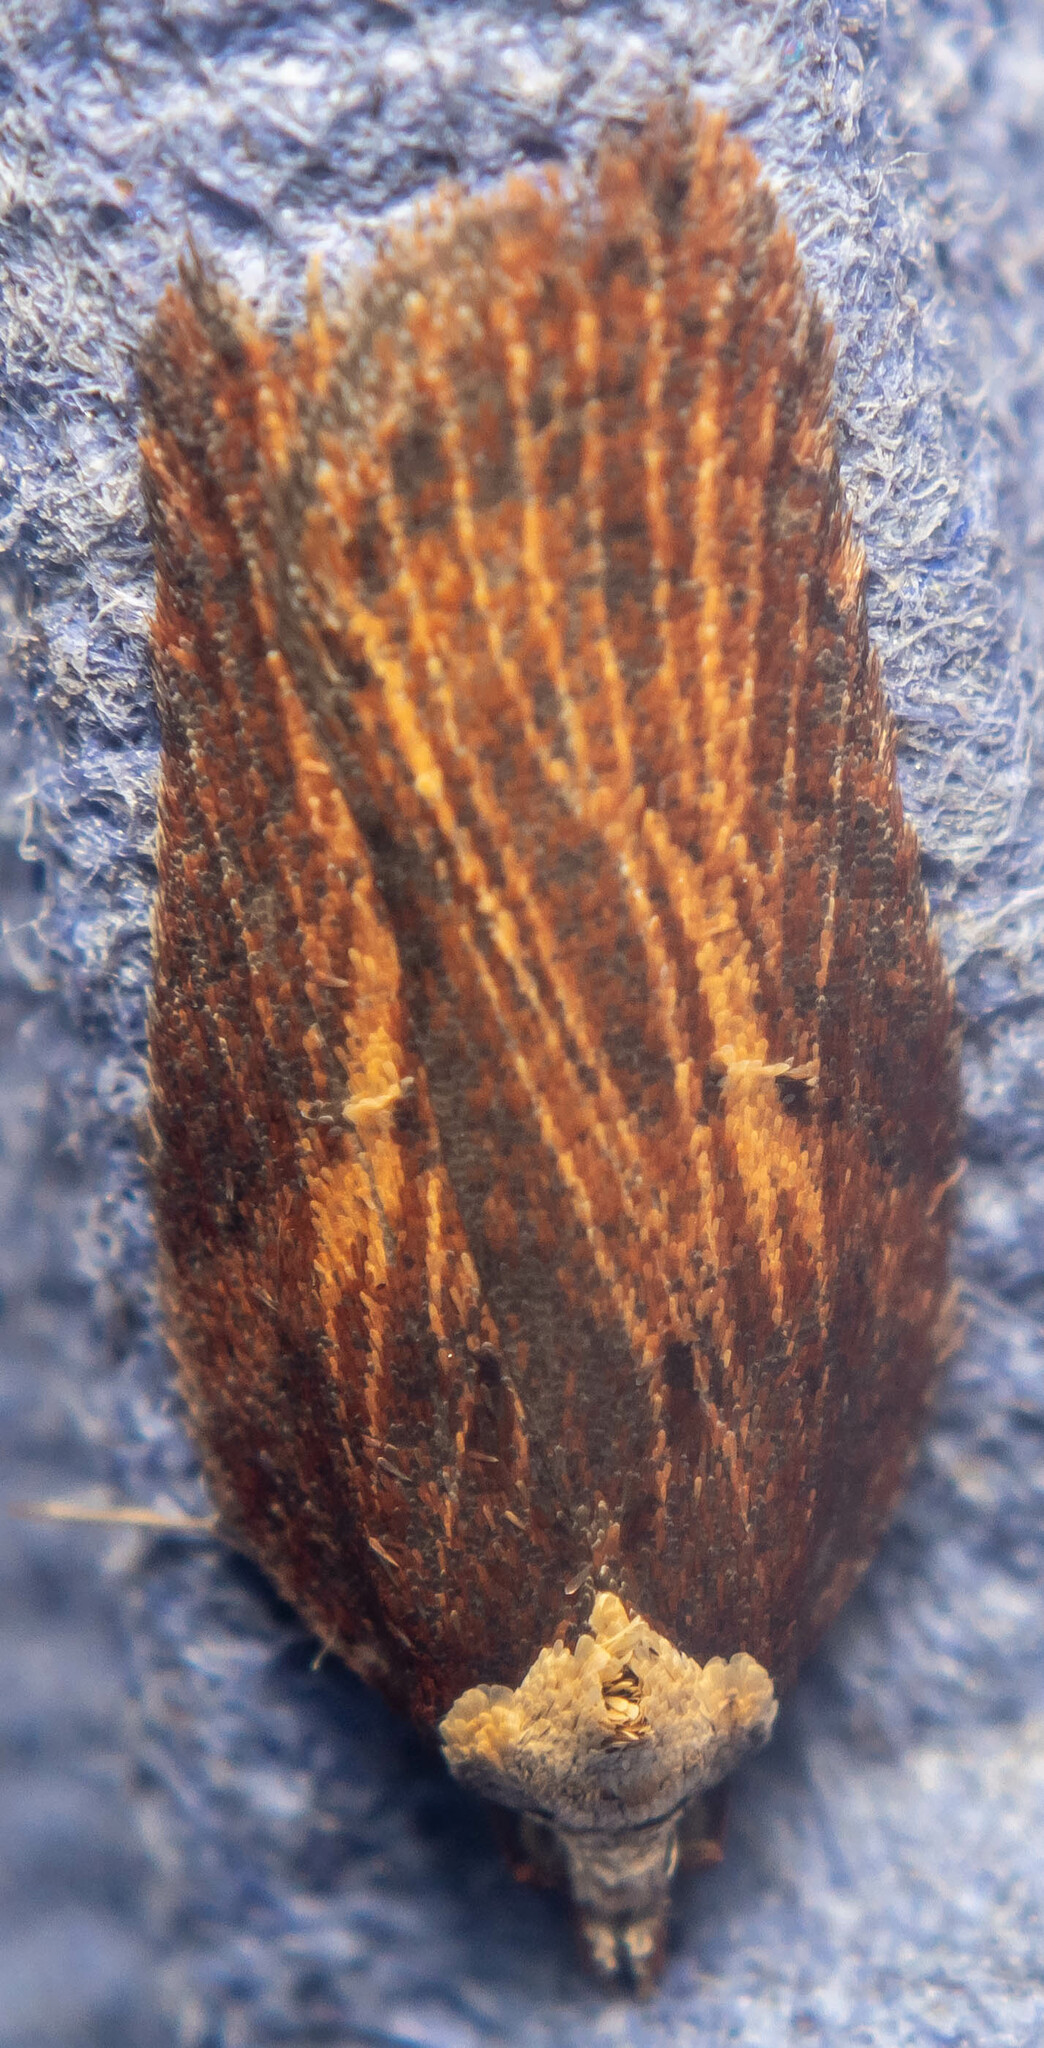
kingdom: Animalia
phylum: Arthropoda
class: Insecta
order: Lepidoptera
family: Tortricidae
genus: Acleris
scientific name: Acleris hastiana
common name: Sallow button
